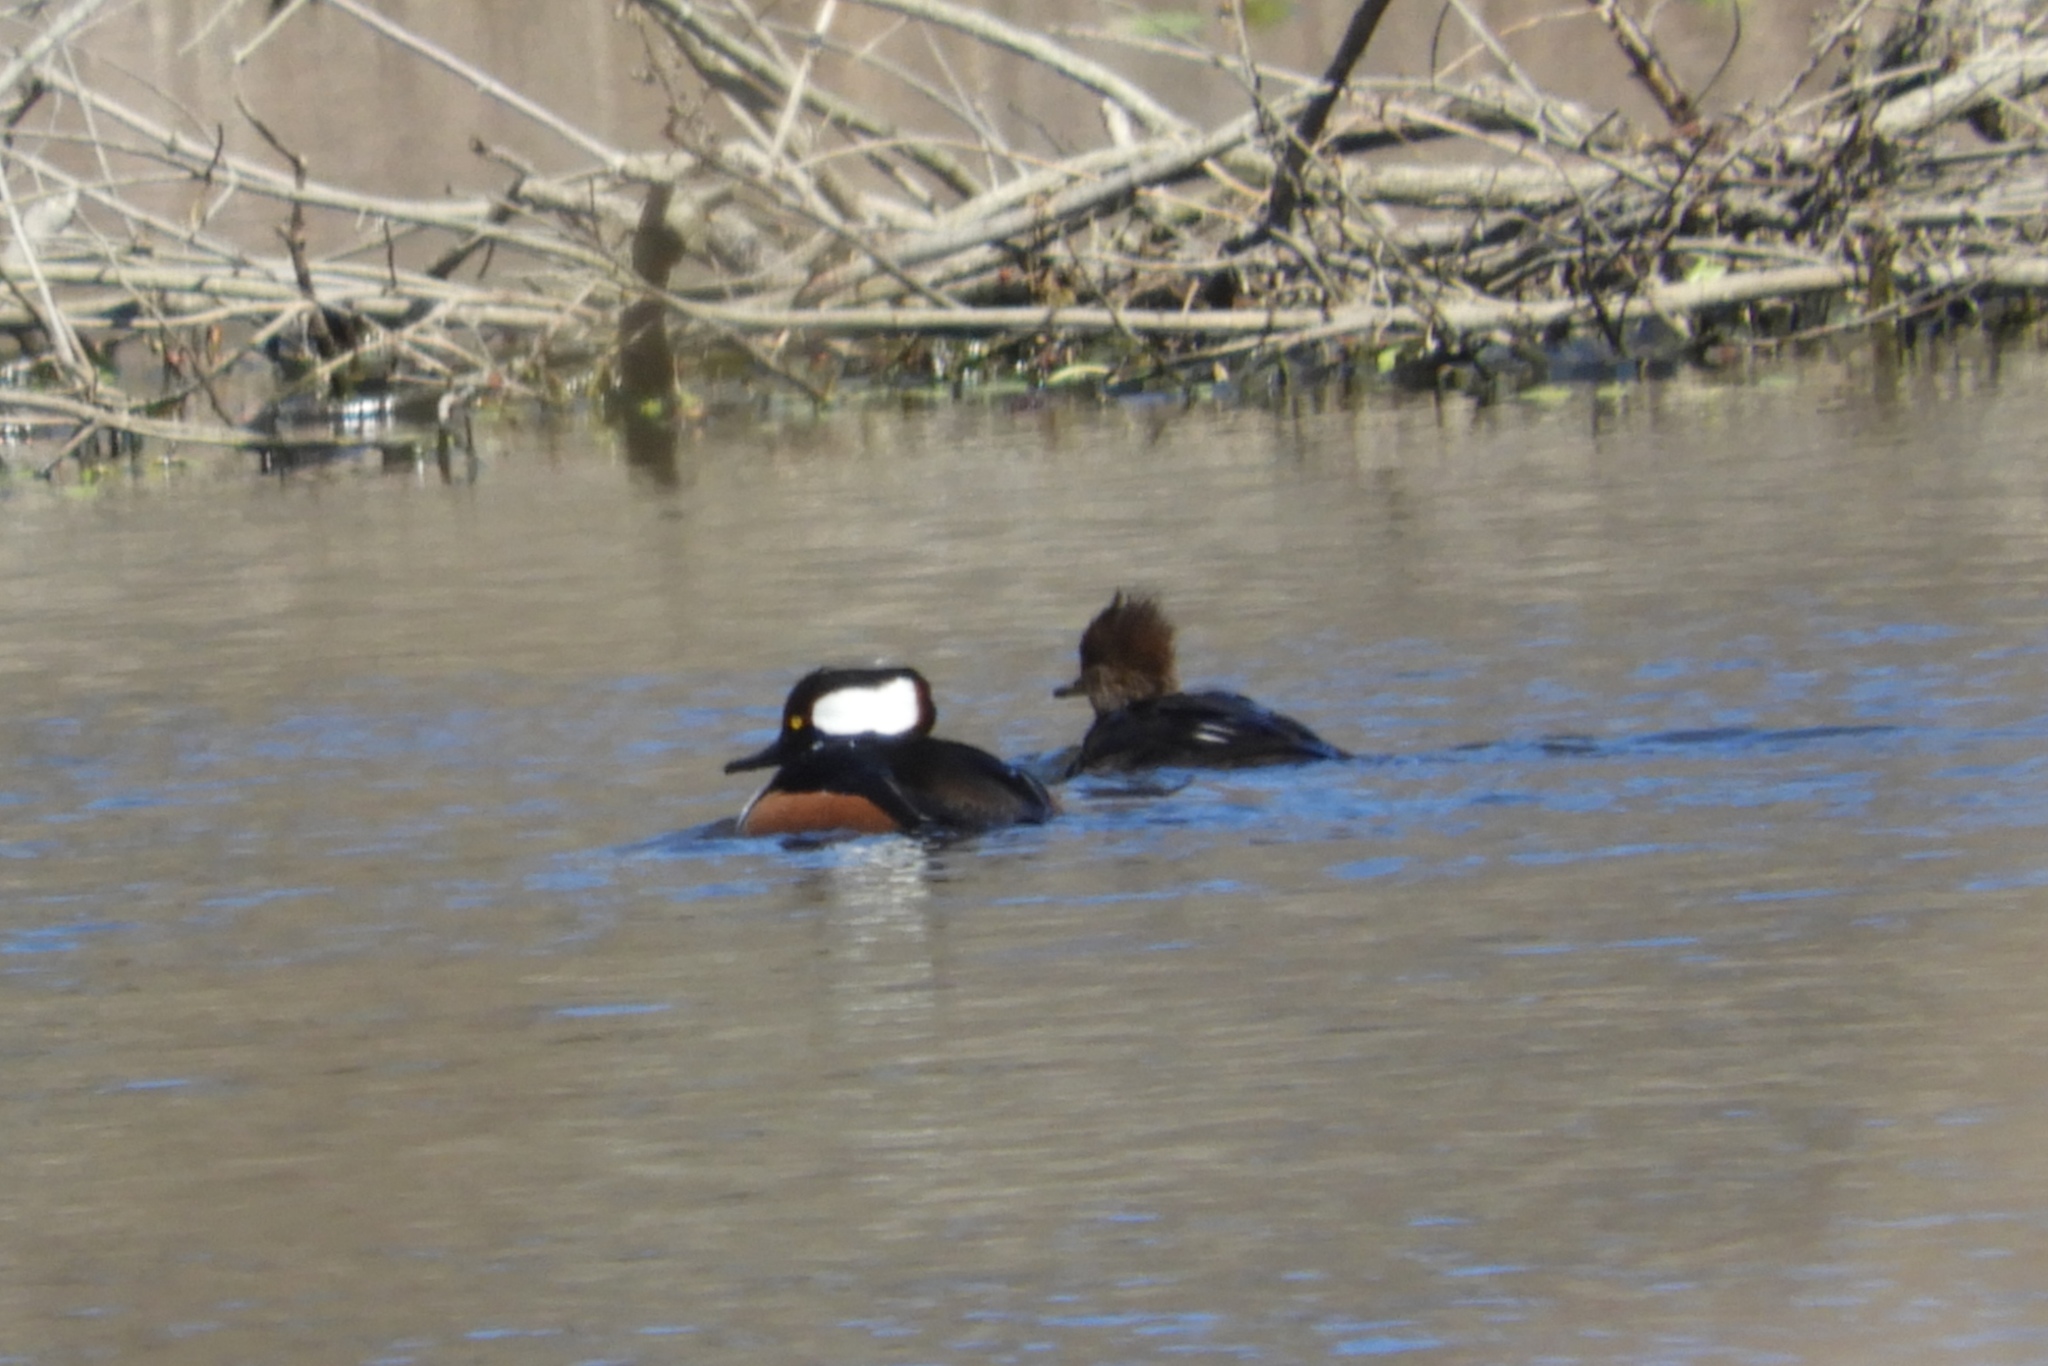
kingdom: Animalia
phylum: Chordata
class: Aves
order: Anseriformes
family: Anatidae
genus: Lophodytes
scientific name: Lophodytes cucullatus
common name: Hooded merganser
